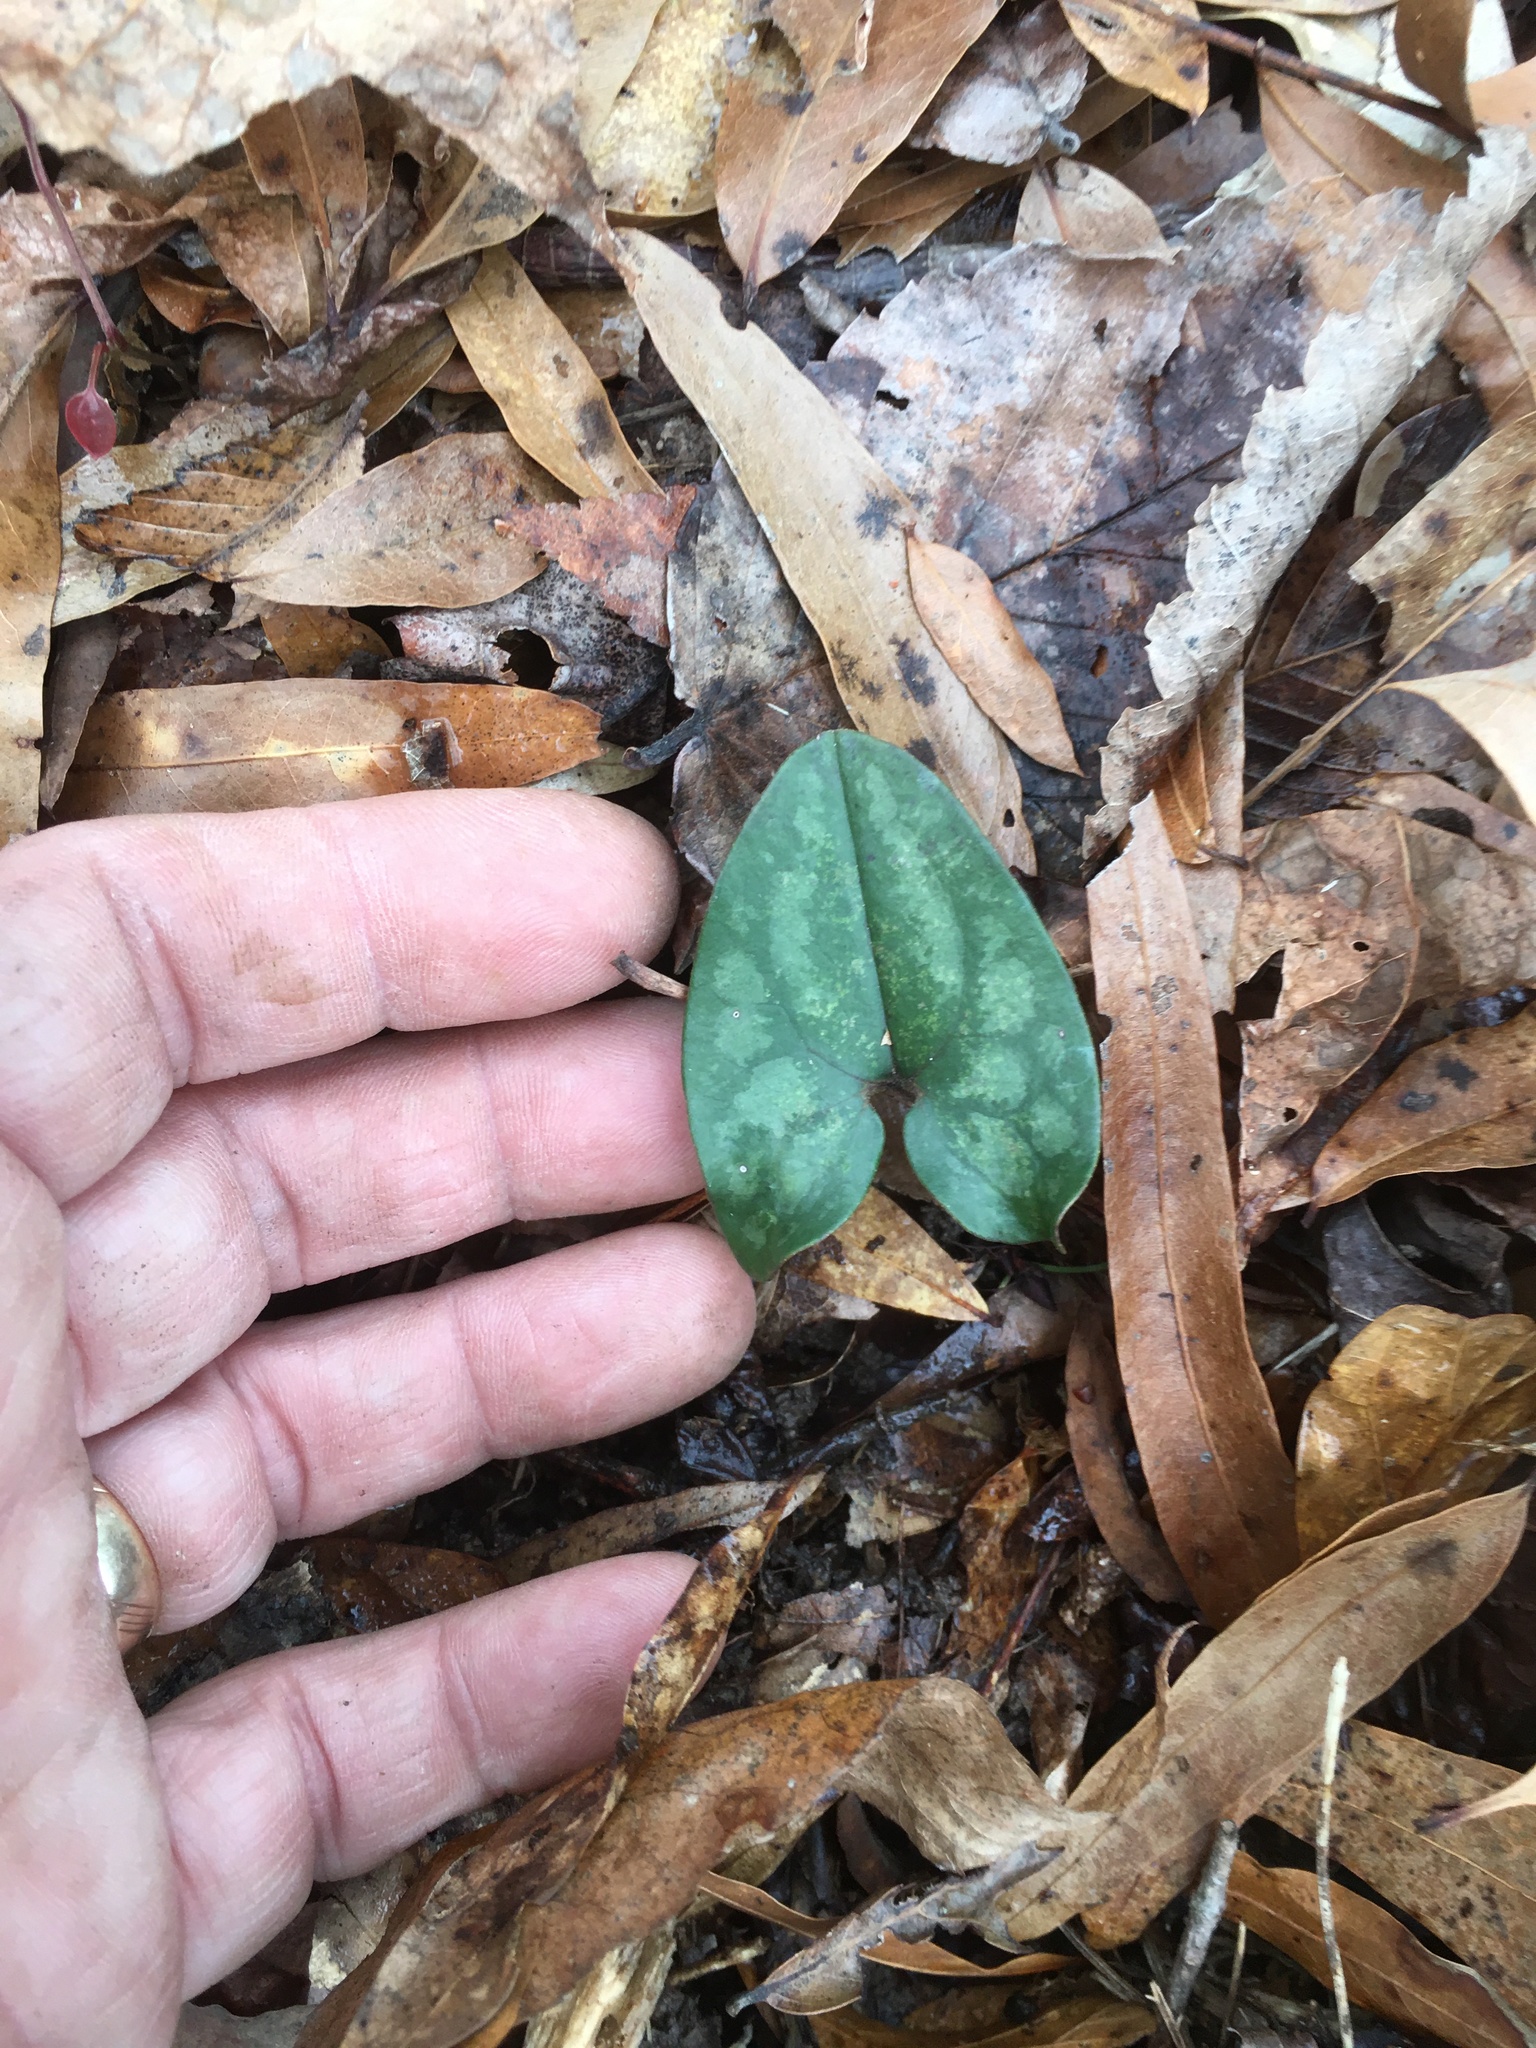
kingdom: Plantae
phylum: Tracheophyta
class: Magnoliopsida
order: Piperales
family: Aristolochiaceae
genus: Hexastylis
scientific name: Hexastylis arifolia
